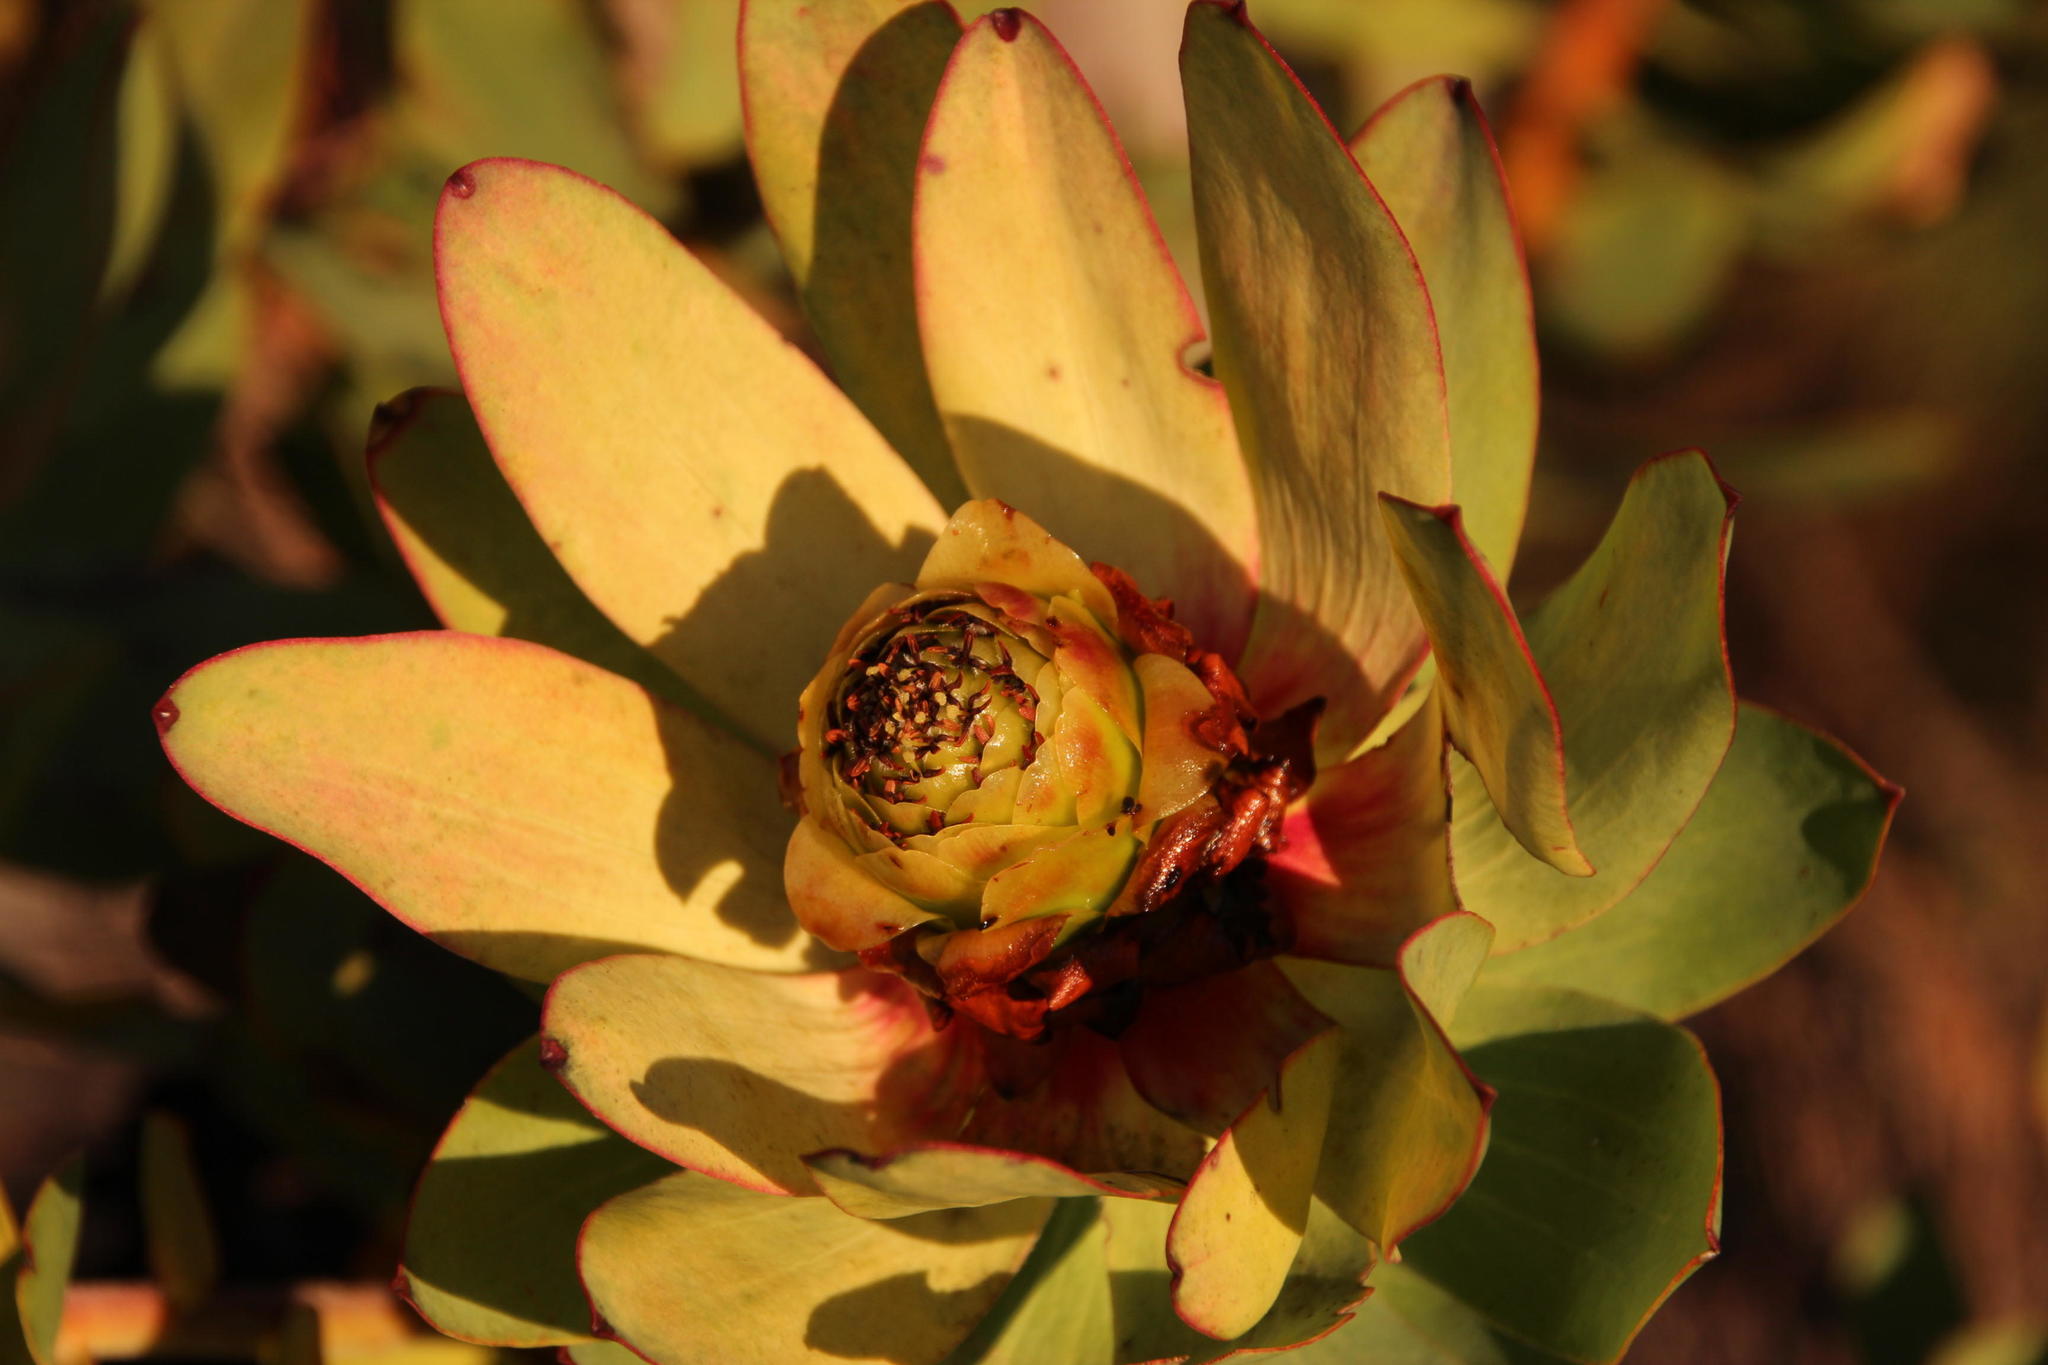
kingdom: Plantae
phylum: Tracheophyta
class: Magnoliopsida
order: Proteales
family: Proteaceae
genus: Leucadendron
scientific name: Leucadendron tinctum
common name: Spicy conebush
